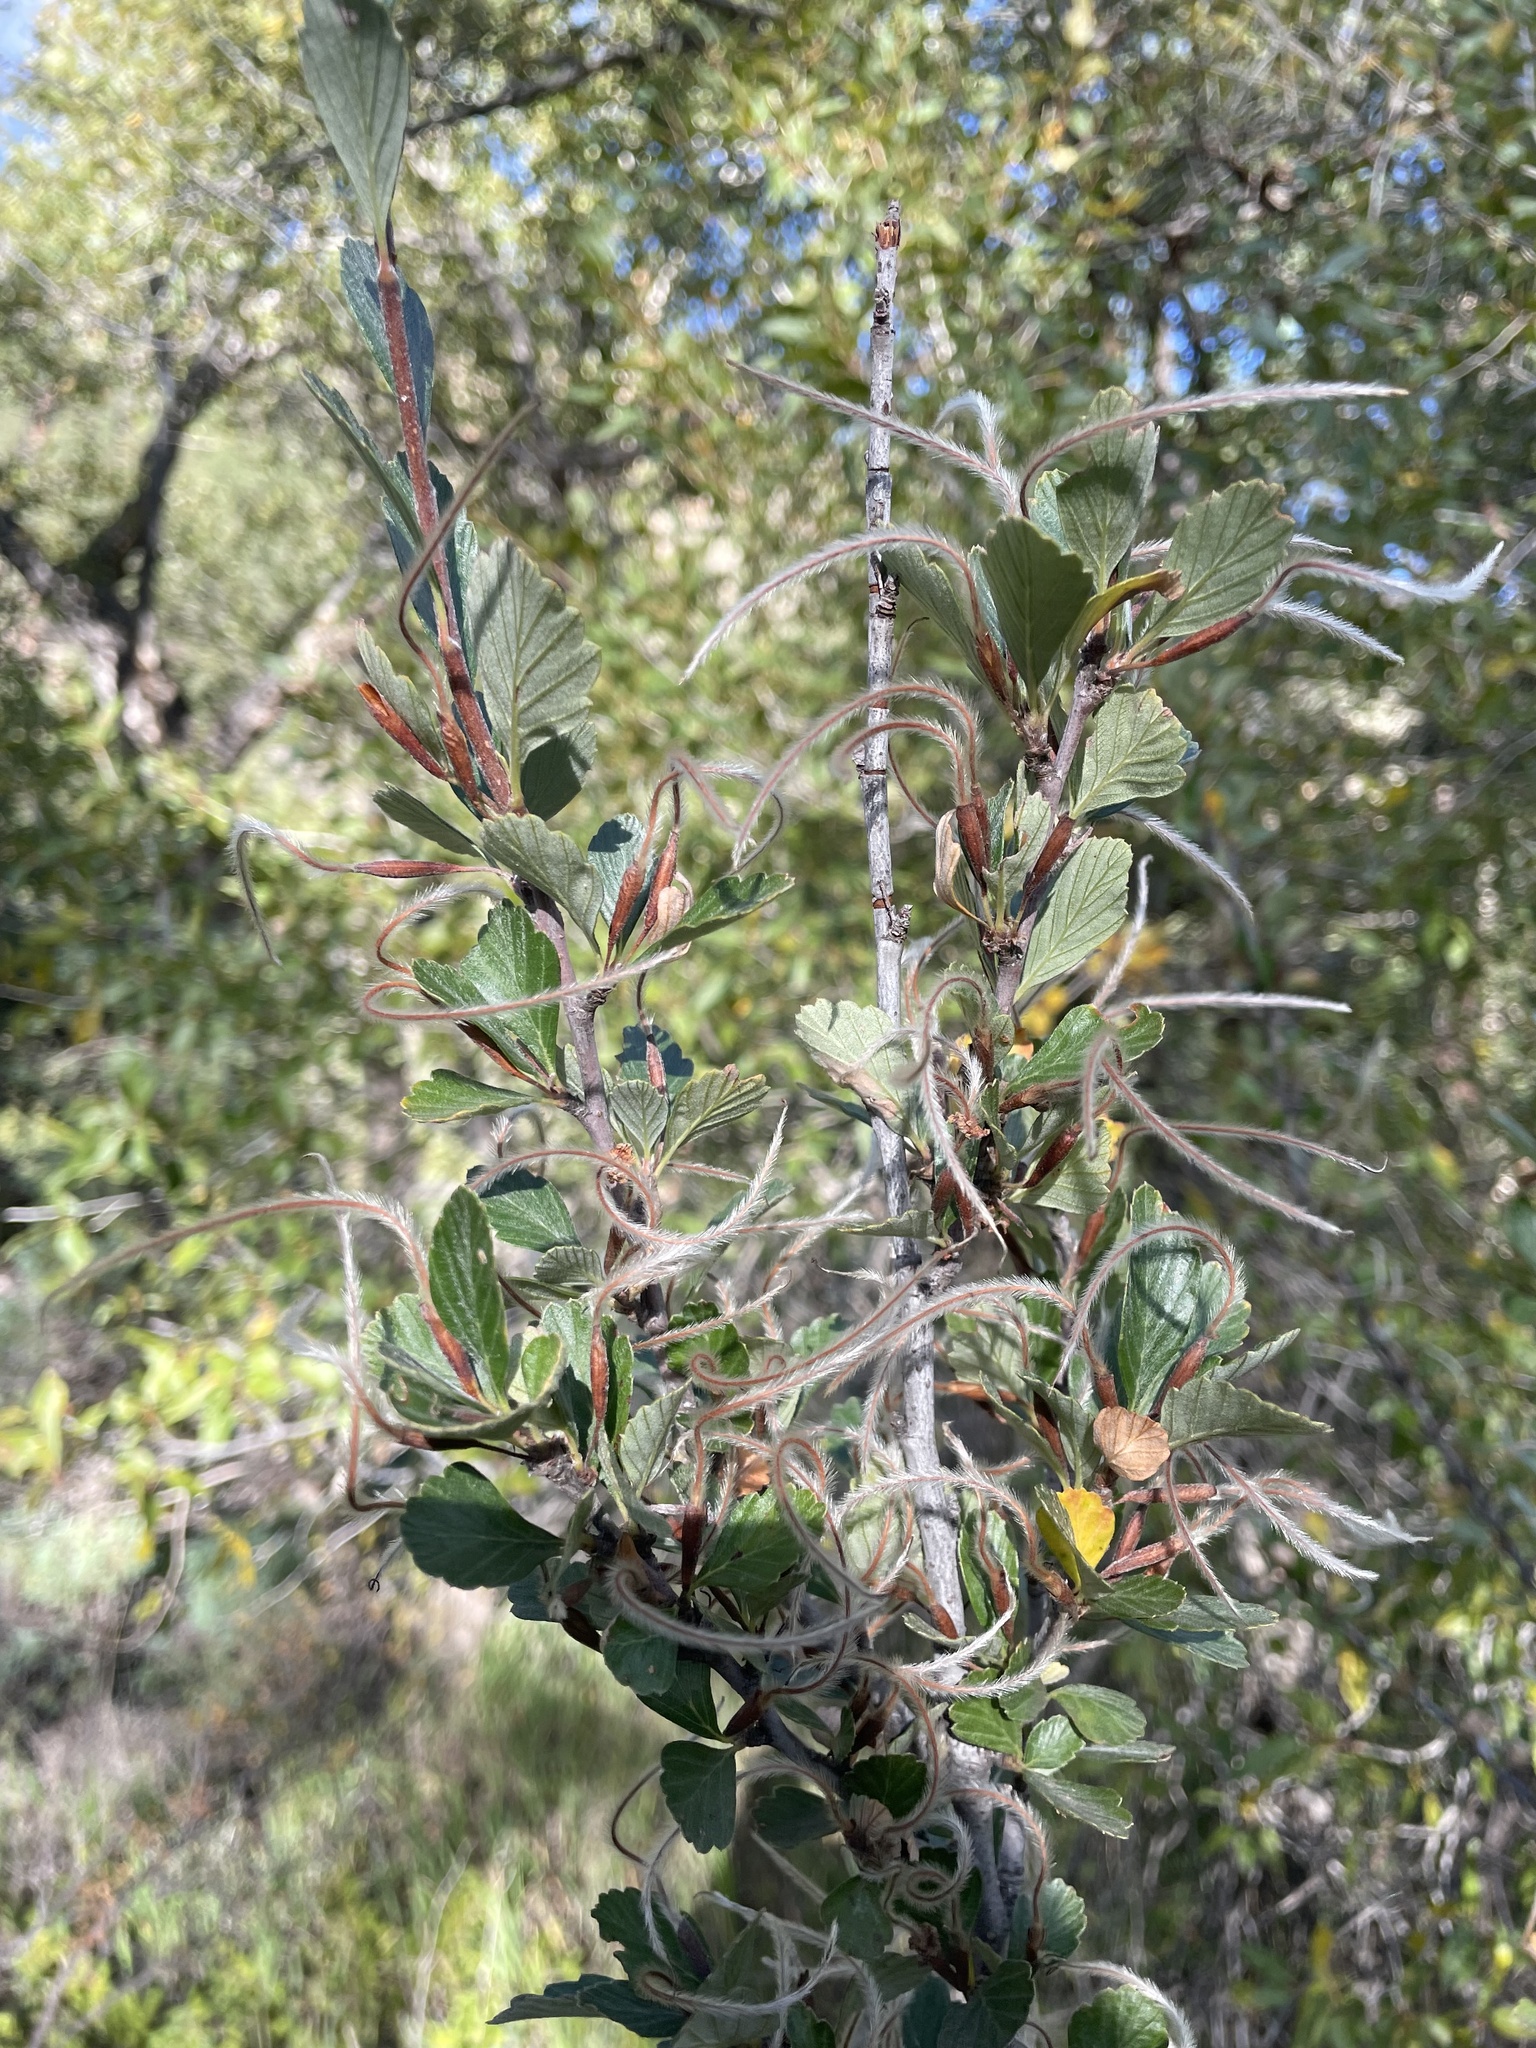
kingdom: Plantae
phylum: Tracheophyta
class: Magnoliopsida
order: Rosales
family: Rosaceae
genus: Cercocarpus
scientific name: Cercocarpus montanus
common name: Alder-leaf cercocarpus
